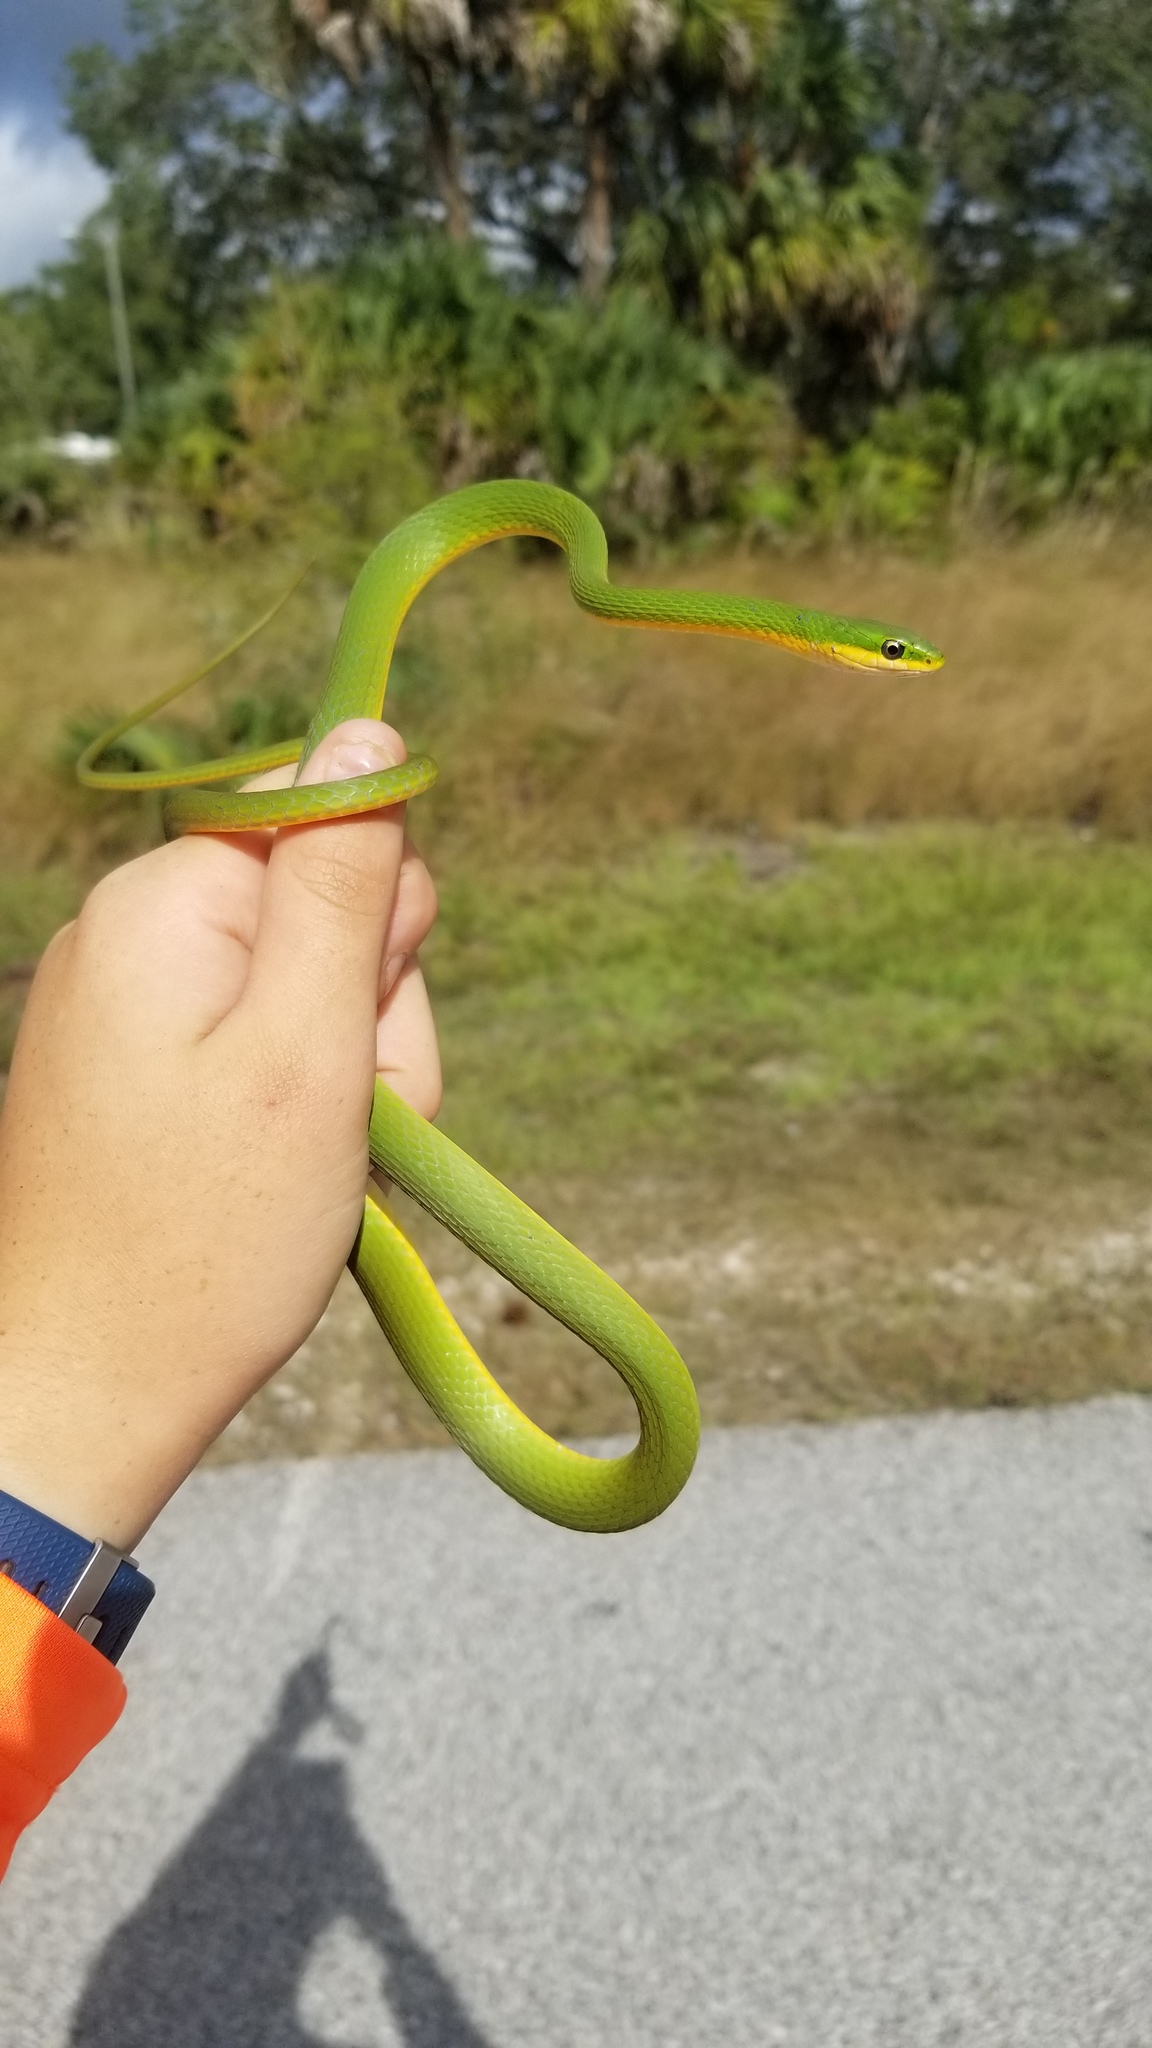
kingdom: Animalia
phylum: Chordata
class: Squamata
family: Colubridae
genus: Opheodrys
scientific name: Opheodrys aestivus
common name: Rough greensnake
